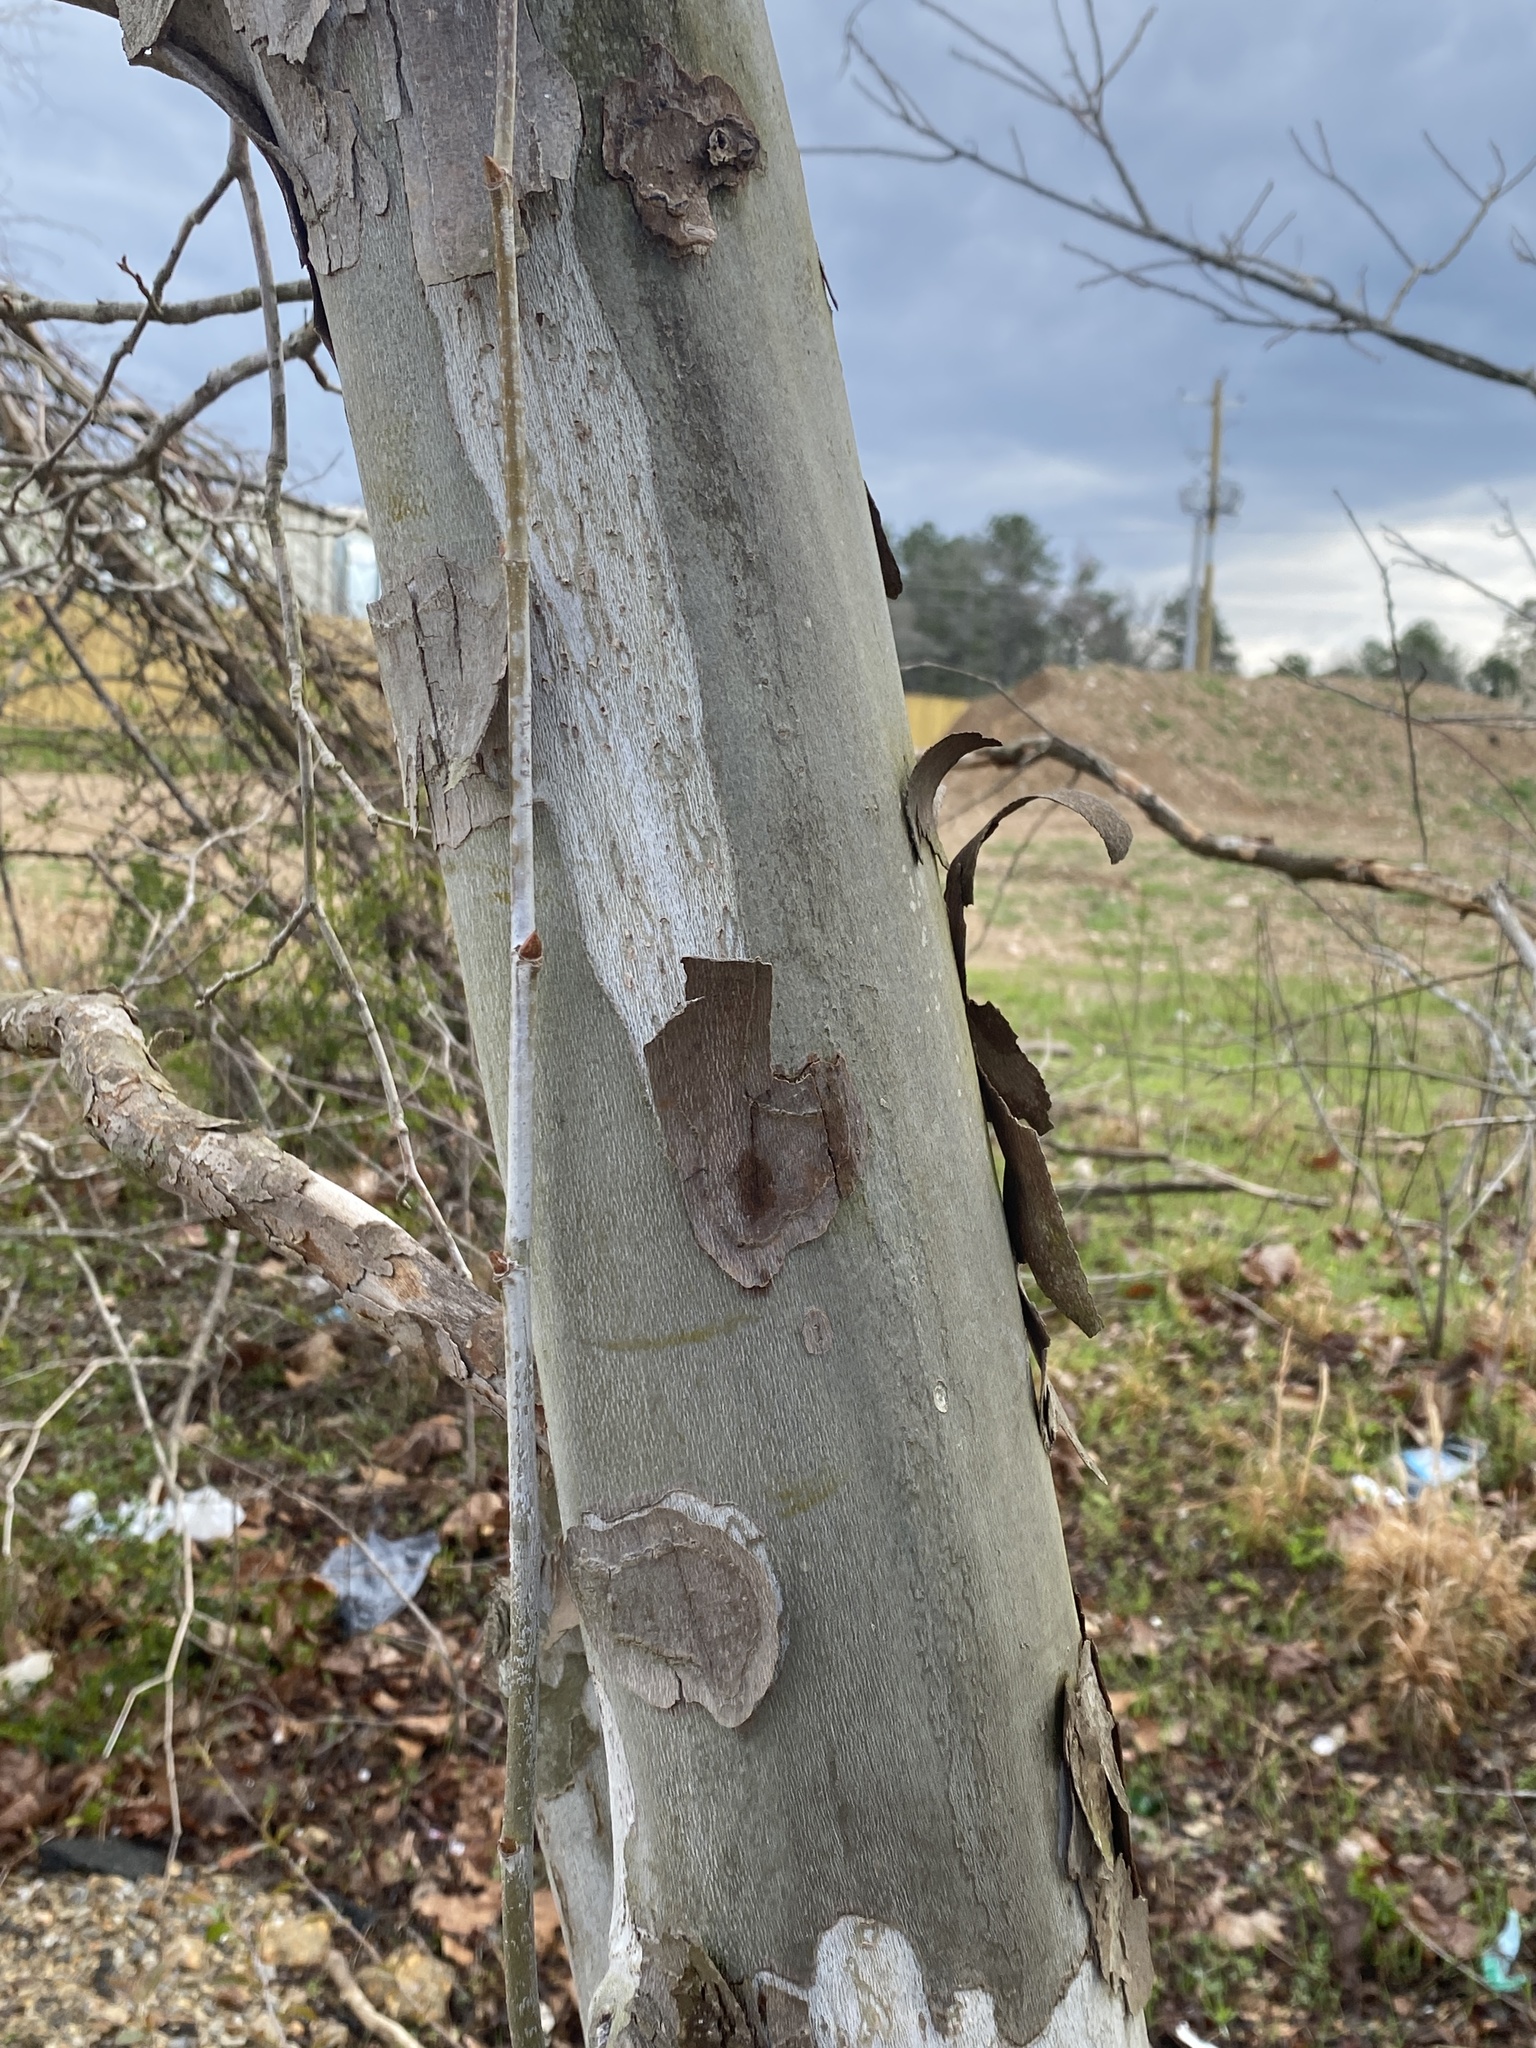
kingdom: Plantae
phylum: Tracheophyta
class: Magnoliopsida
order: Proteales
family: Platanaceae
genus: Platanus
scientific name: Platanus occidentalis
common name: American sycamore
